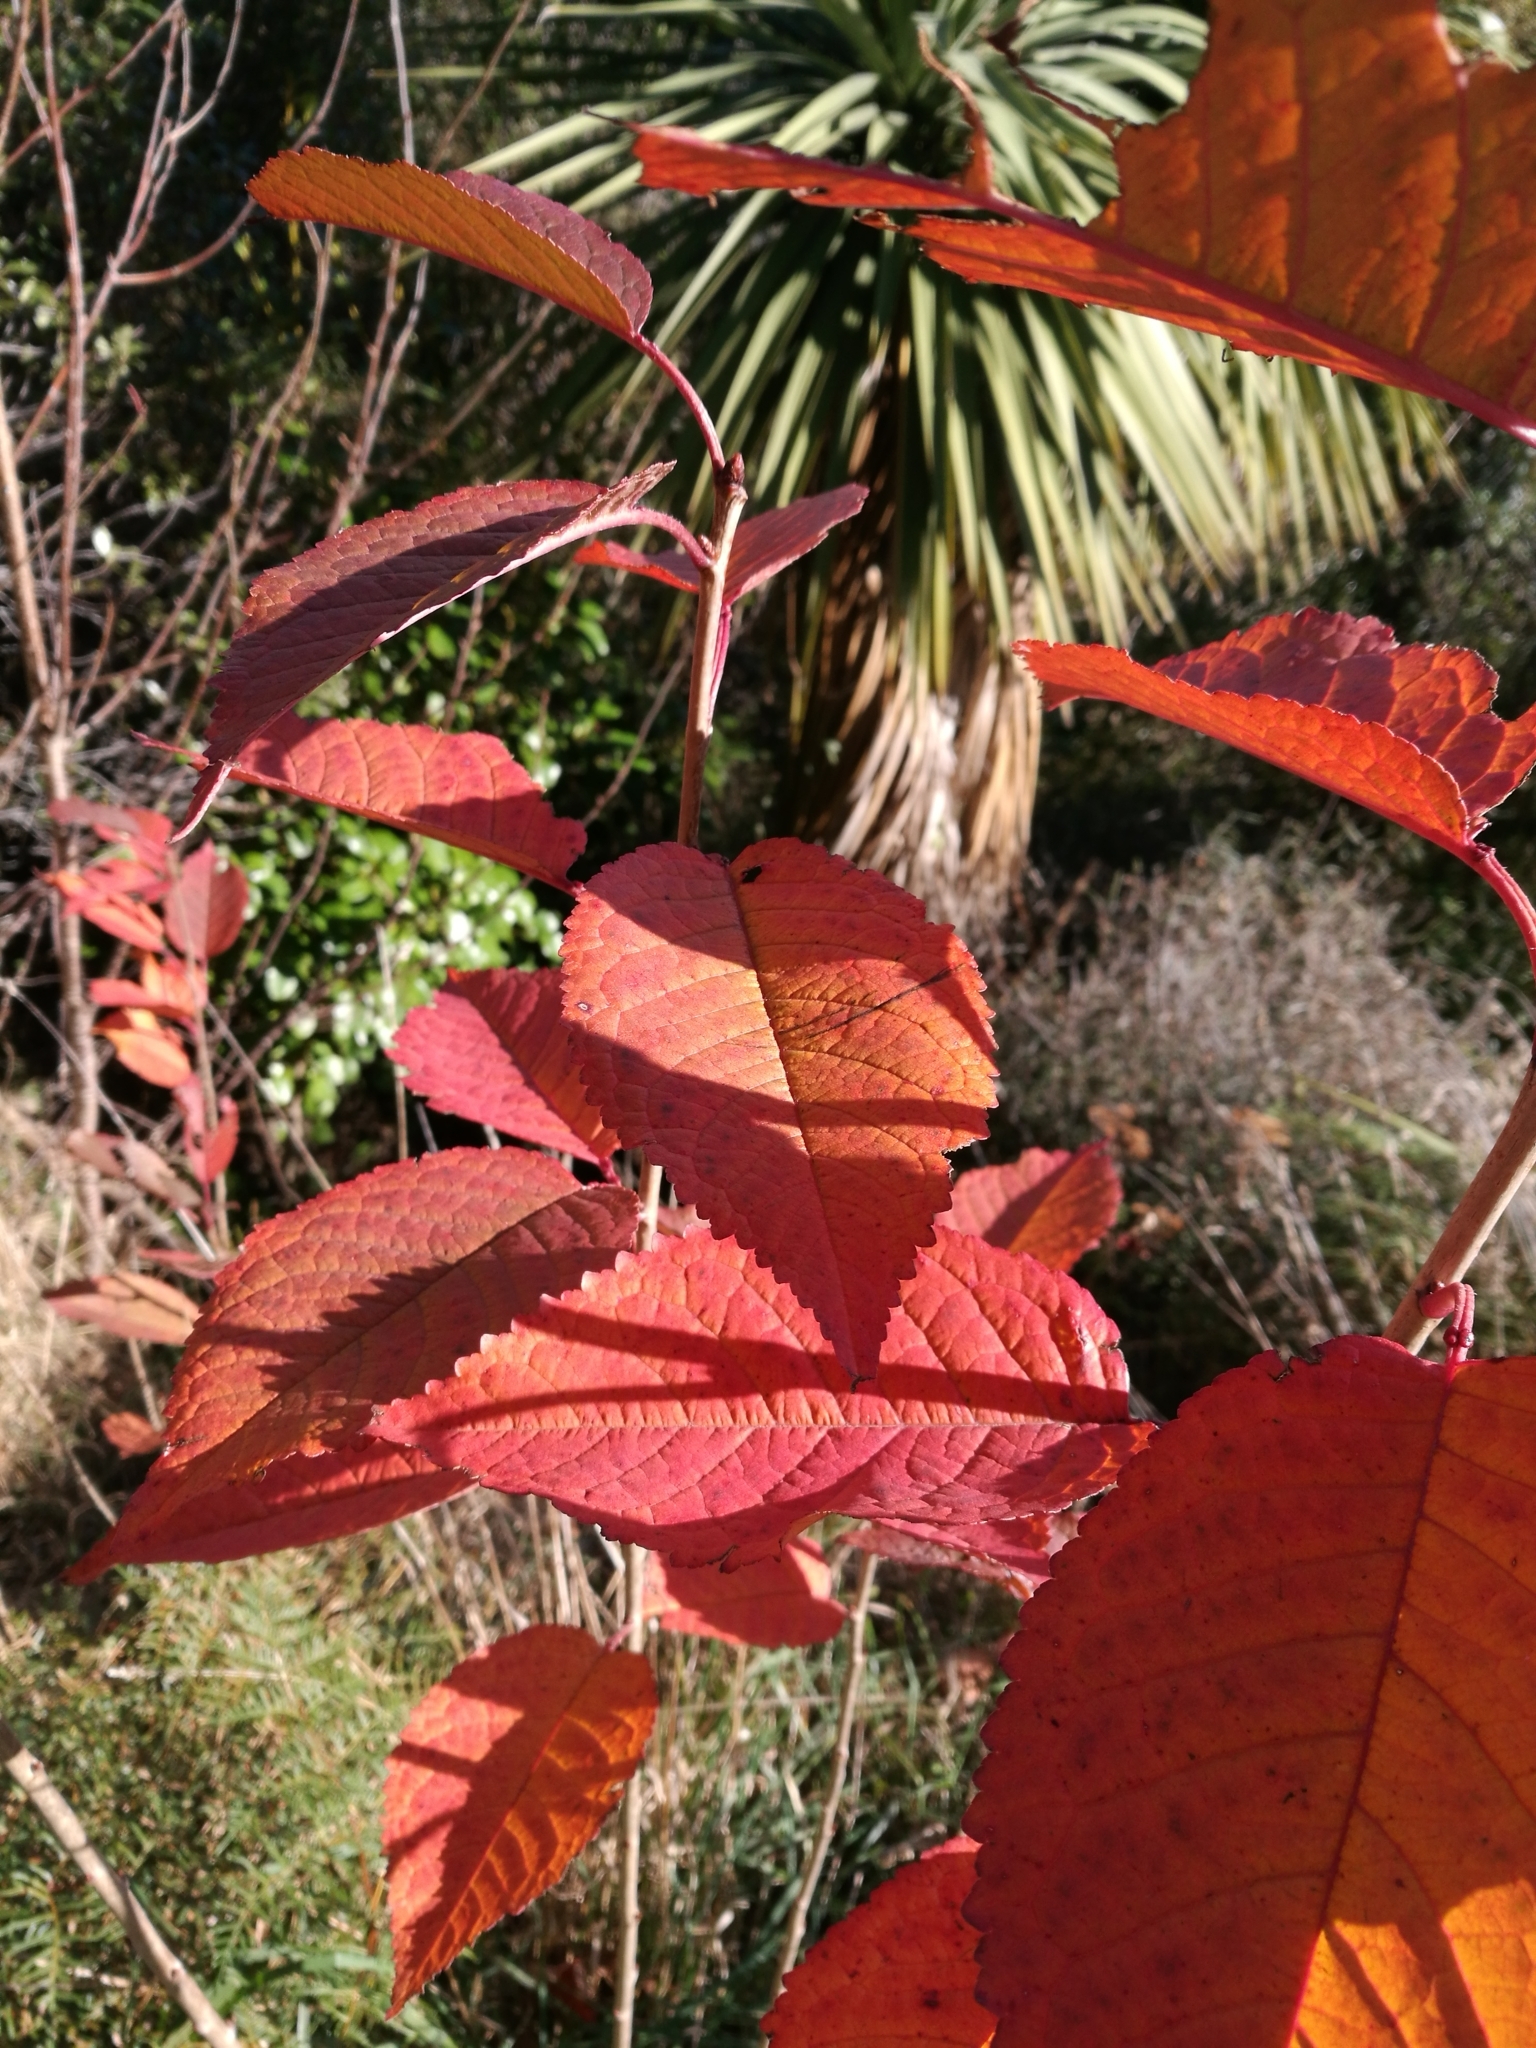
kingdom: Plantae
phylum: Tracheophyta
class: Magnoliopsida
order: Rosales
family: Rosaceae
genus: Prunus
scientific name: Prunus avium
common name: Sweet cherry
